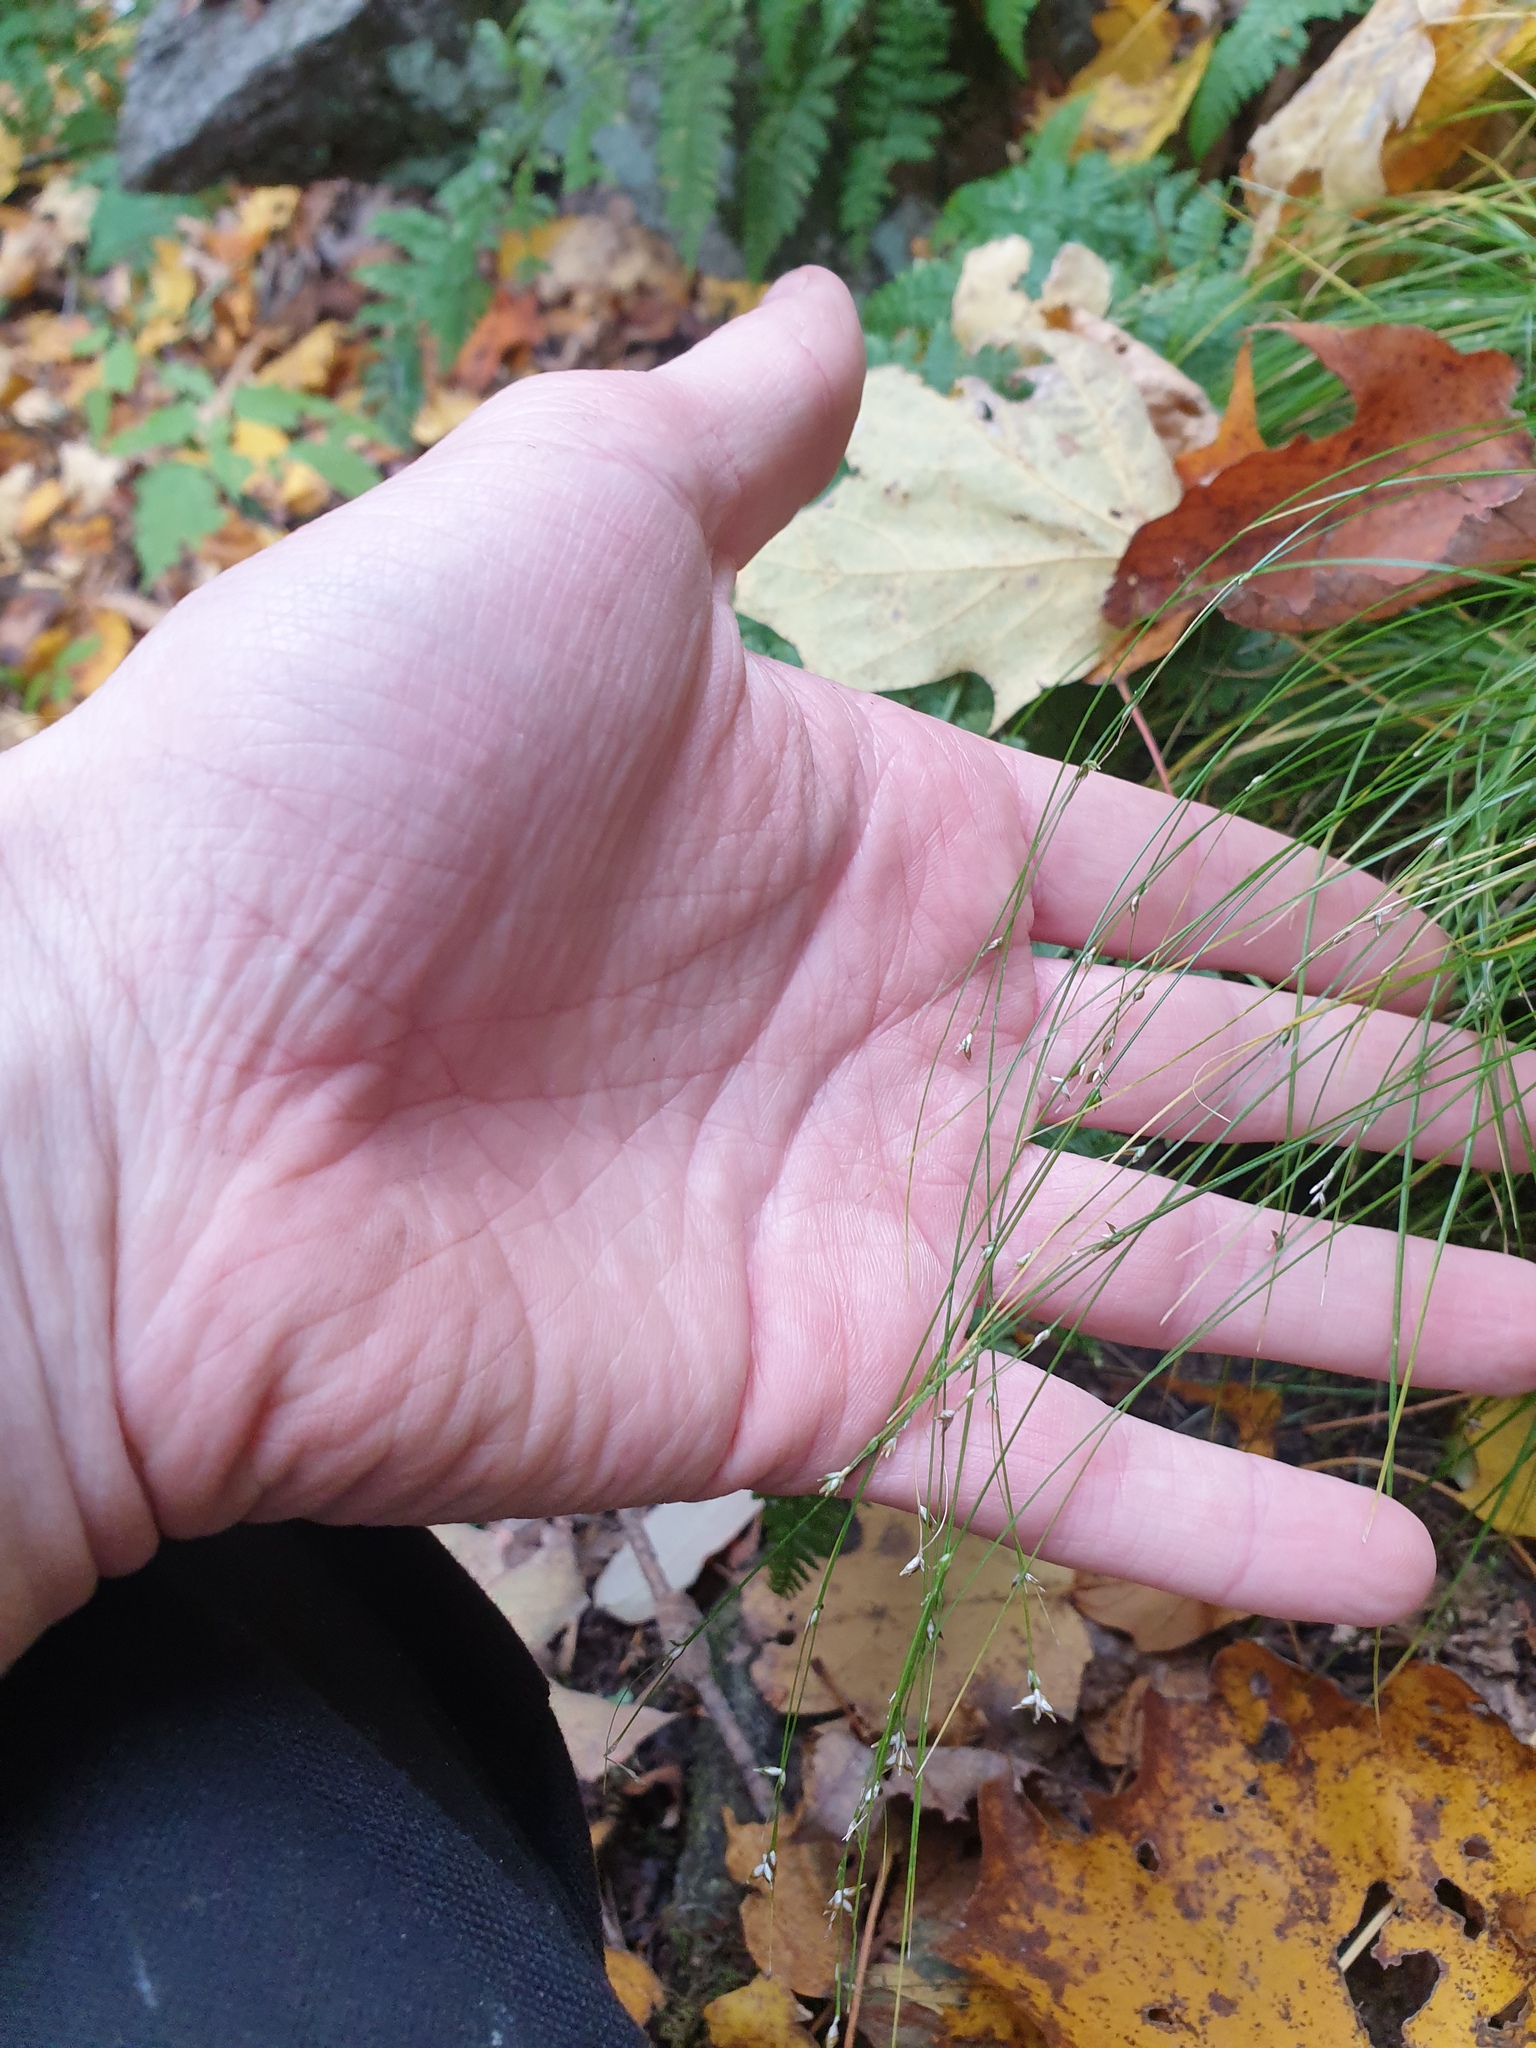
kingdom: Plantae
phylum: Tracheophyta
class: Liliopsida
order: Poales
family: Cyperaceae
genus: Carex
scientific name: Carex appalachica
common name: Appalachian sedge
